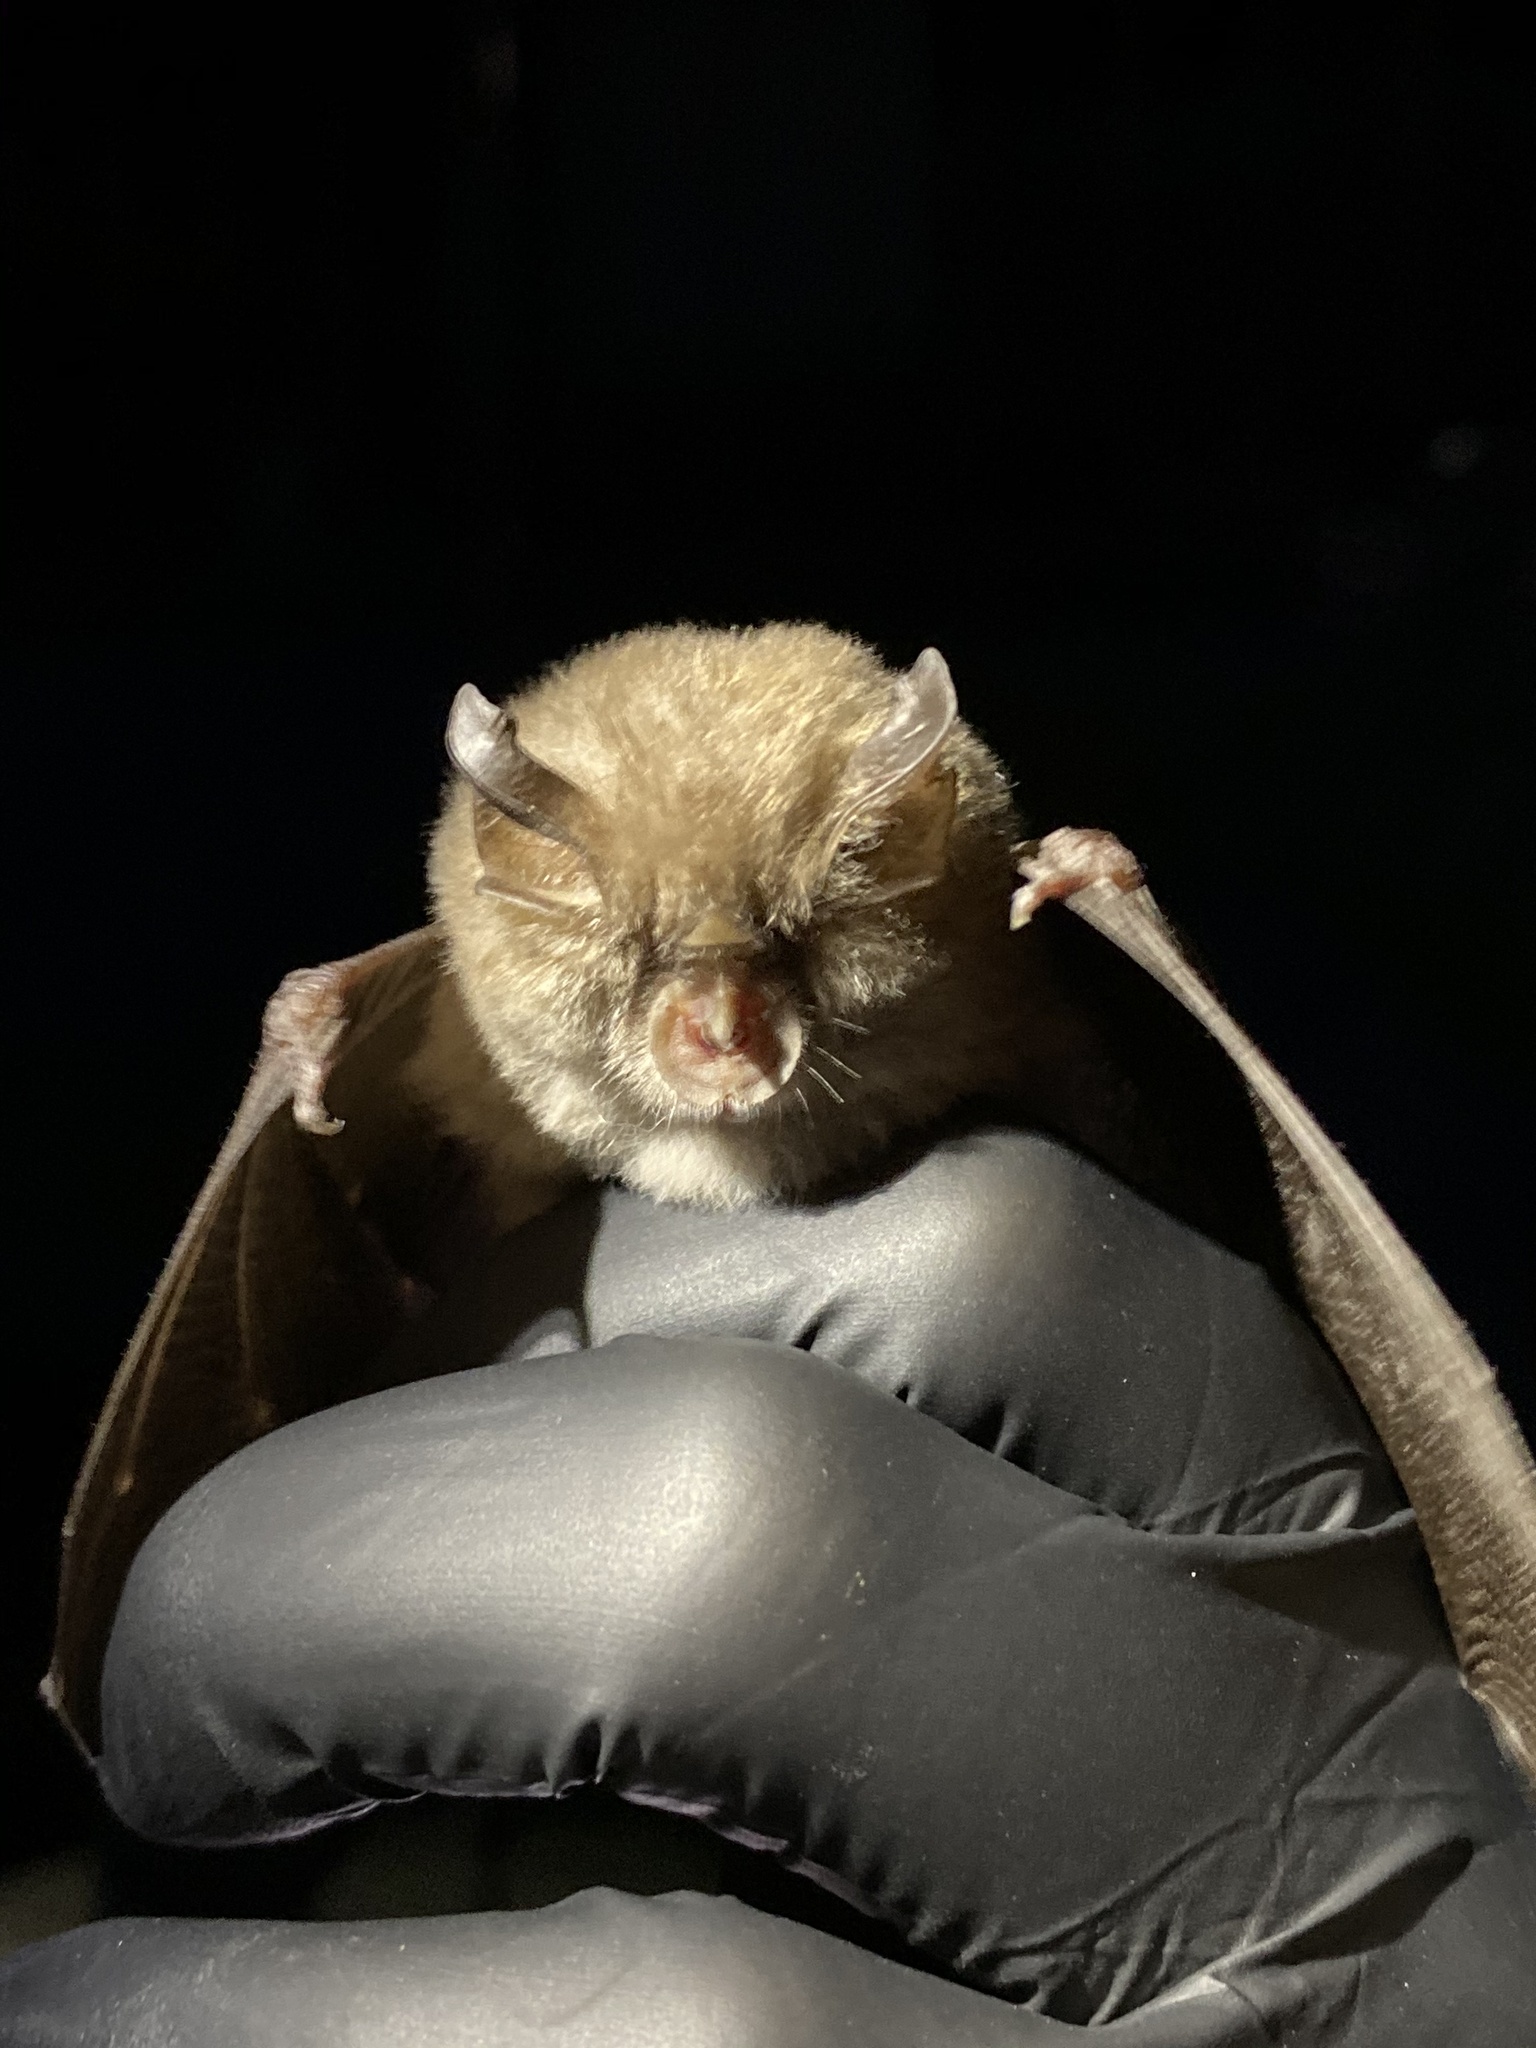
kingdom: Animalia
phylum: Chordata
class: Mammalia
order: Chiroptera
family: Rhinolophidae
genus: Rhinolophus
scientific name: Rhinolophus hipposideros
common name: Lesser horseshoe bat
